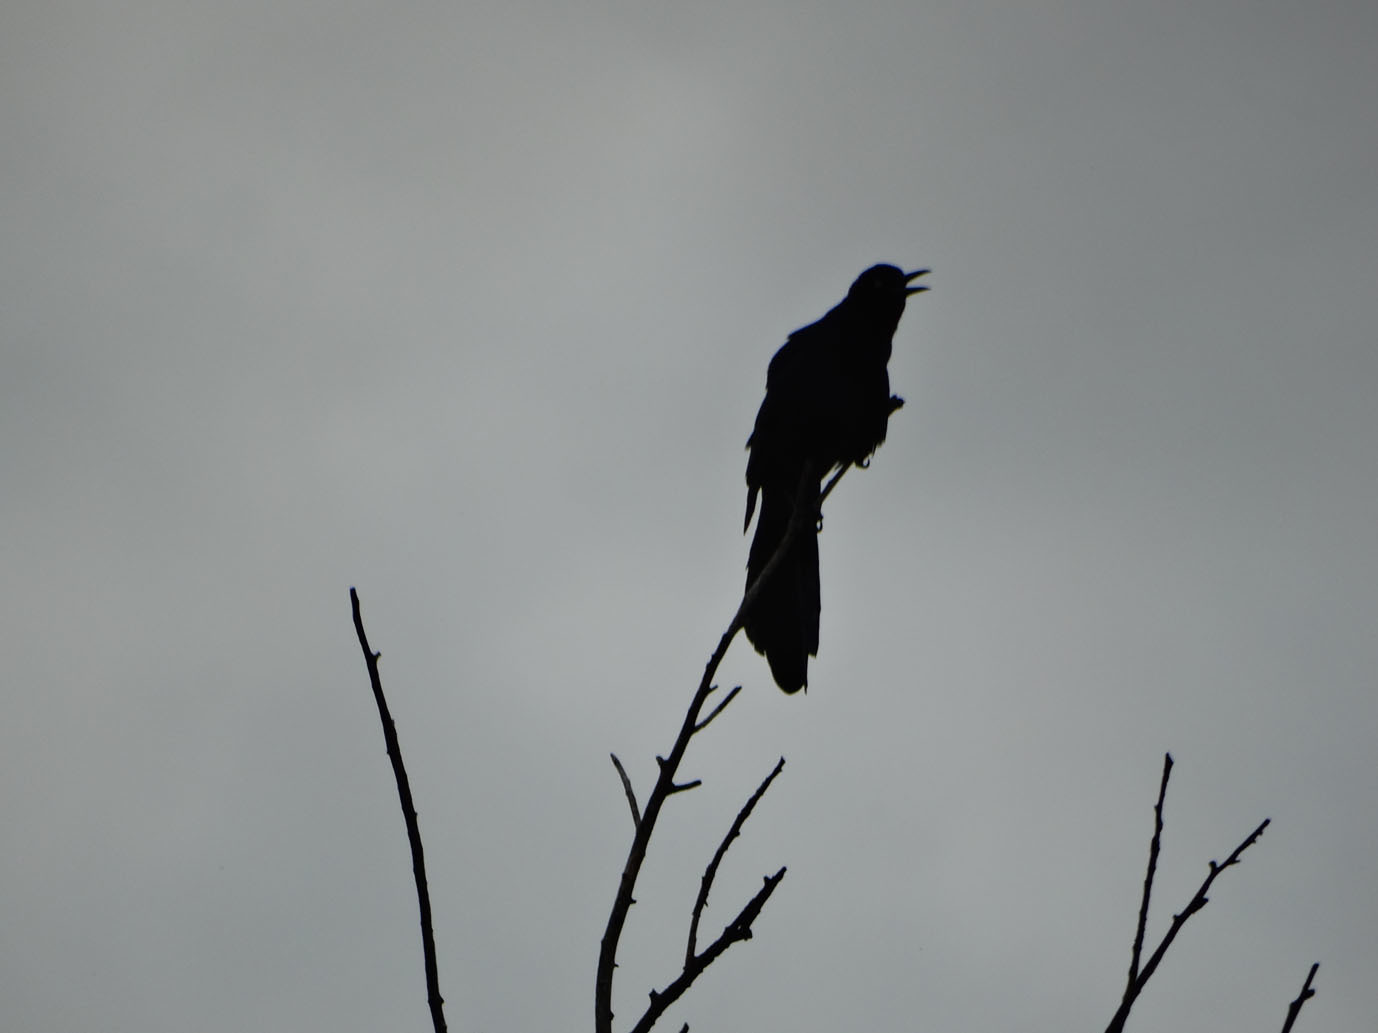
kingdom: Animalia
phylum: Chordata
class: Aves
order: Passeriformes
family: Icteridae
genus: Quiscalus
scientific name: Quiscalus mexicanus
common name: Great-tailed grackle
